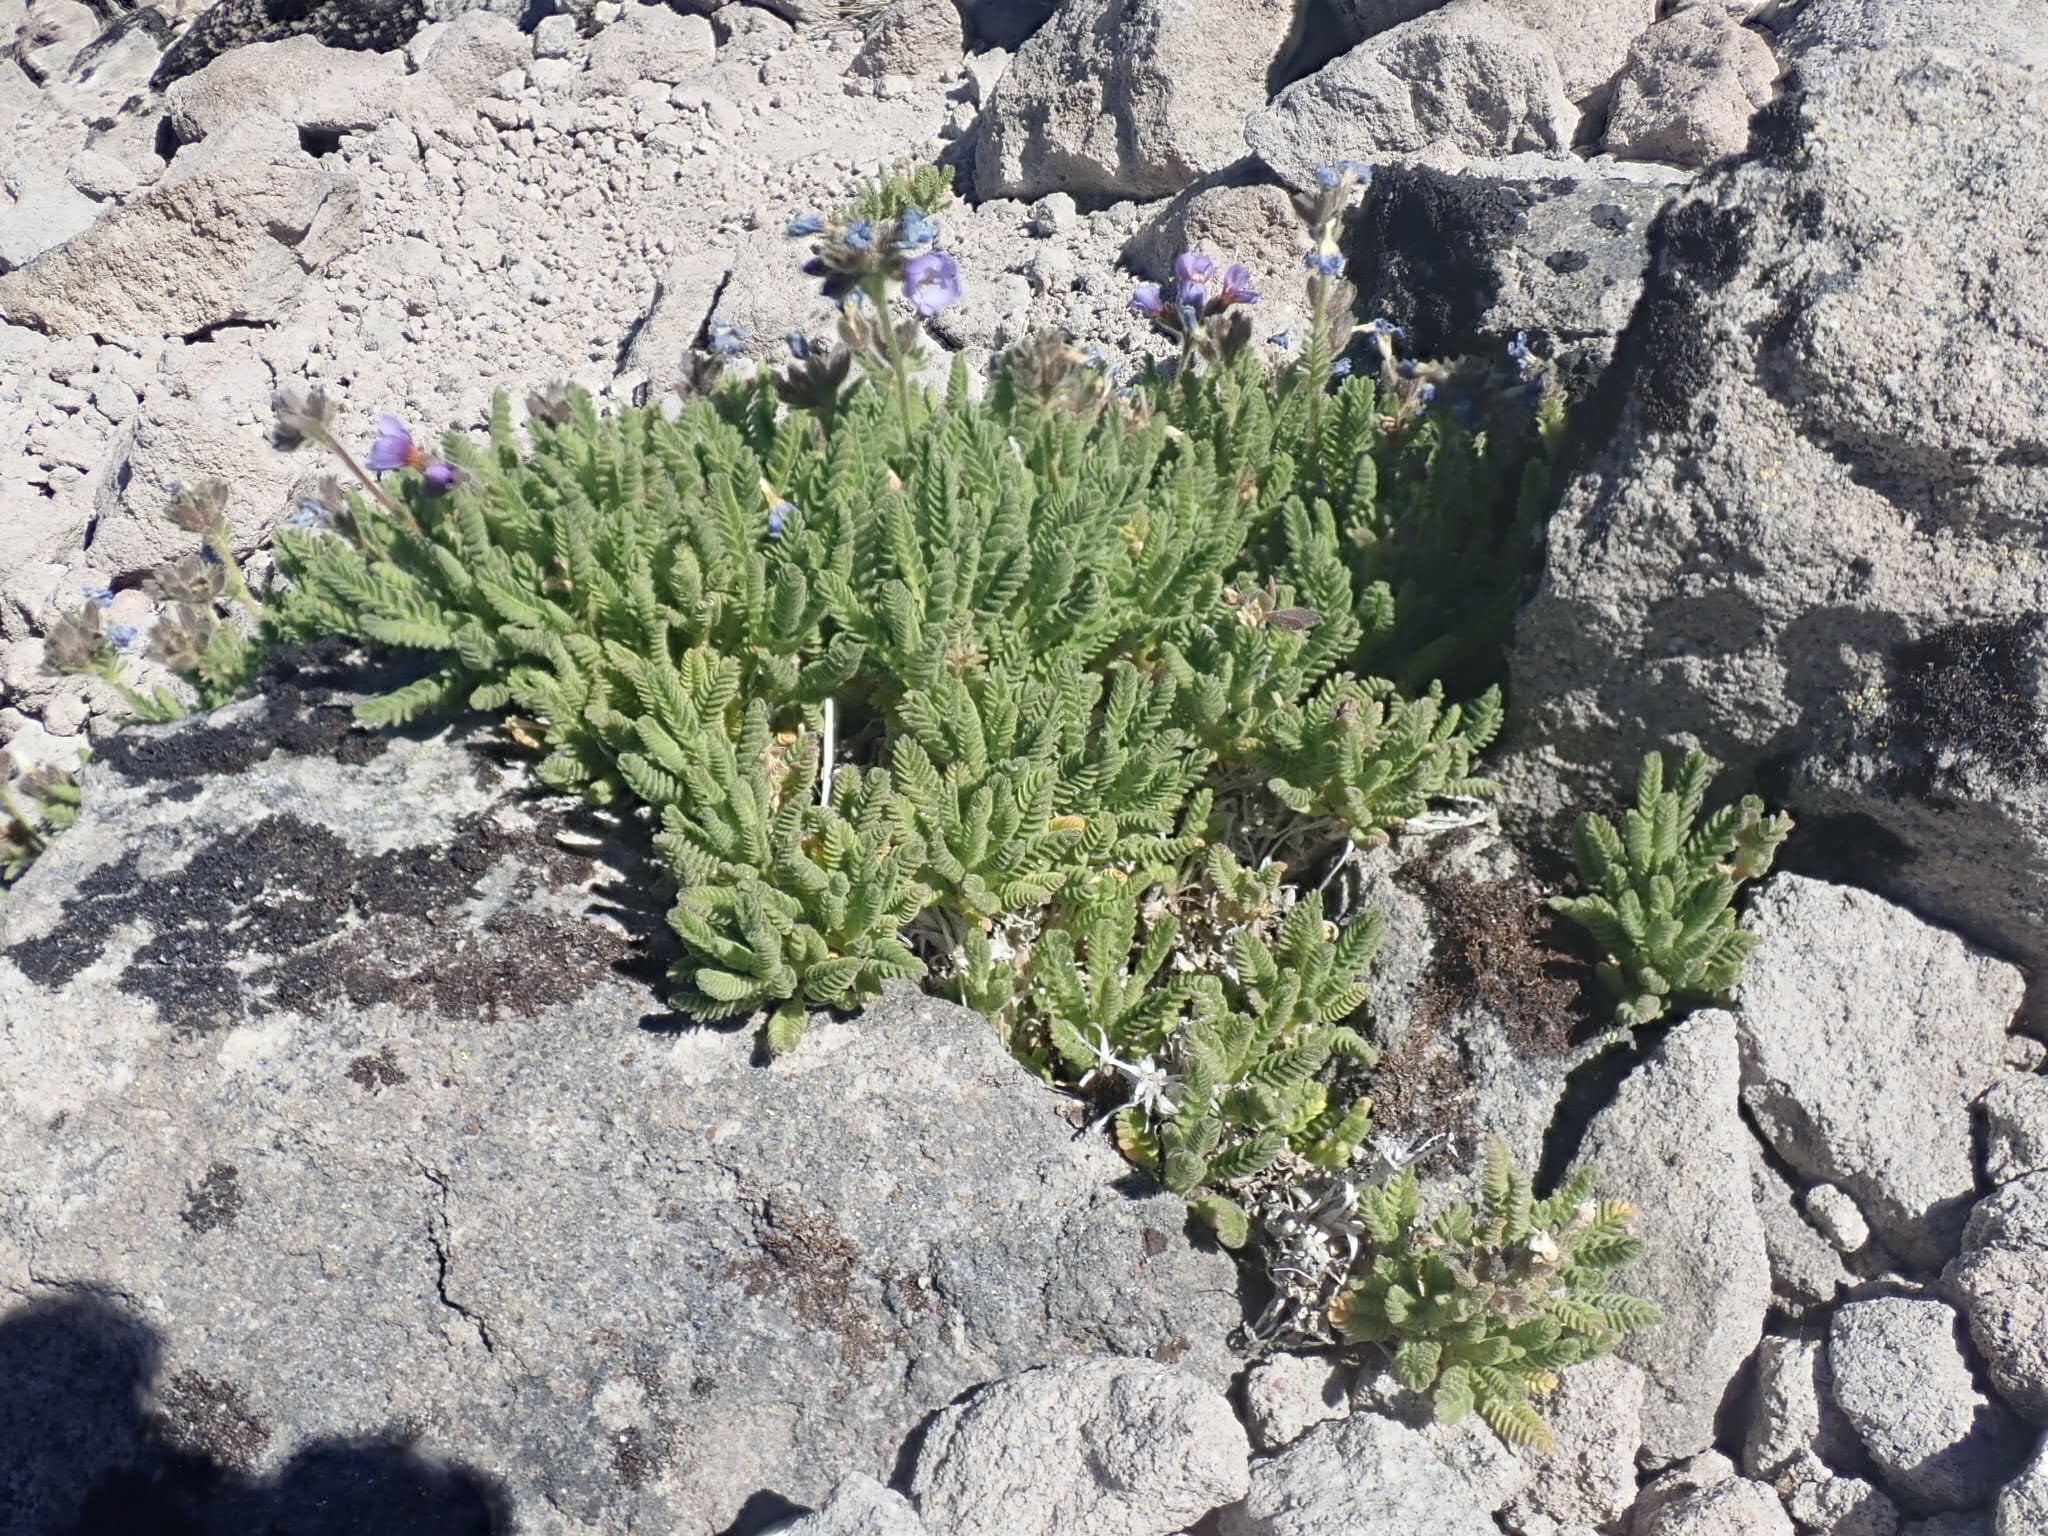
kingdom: Plantae
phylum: Tracheophyta
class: Magnoliopsida
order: Ericales
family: Polemoniaceae
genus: Polemonium
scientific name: Polemonium elegans
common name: Elegant jacob's-ladder
